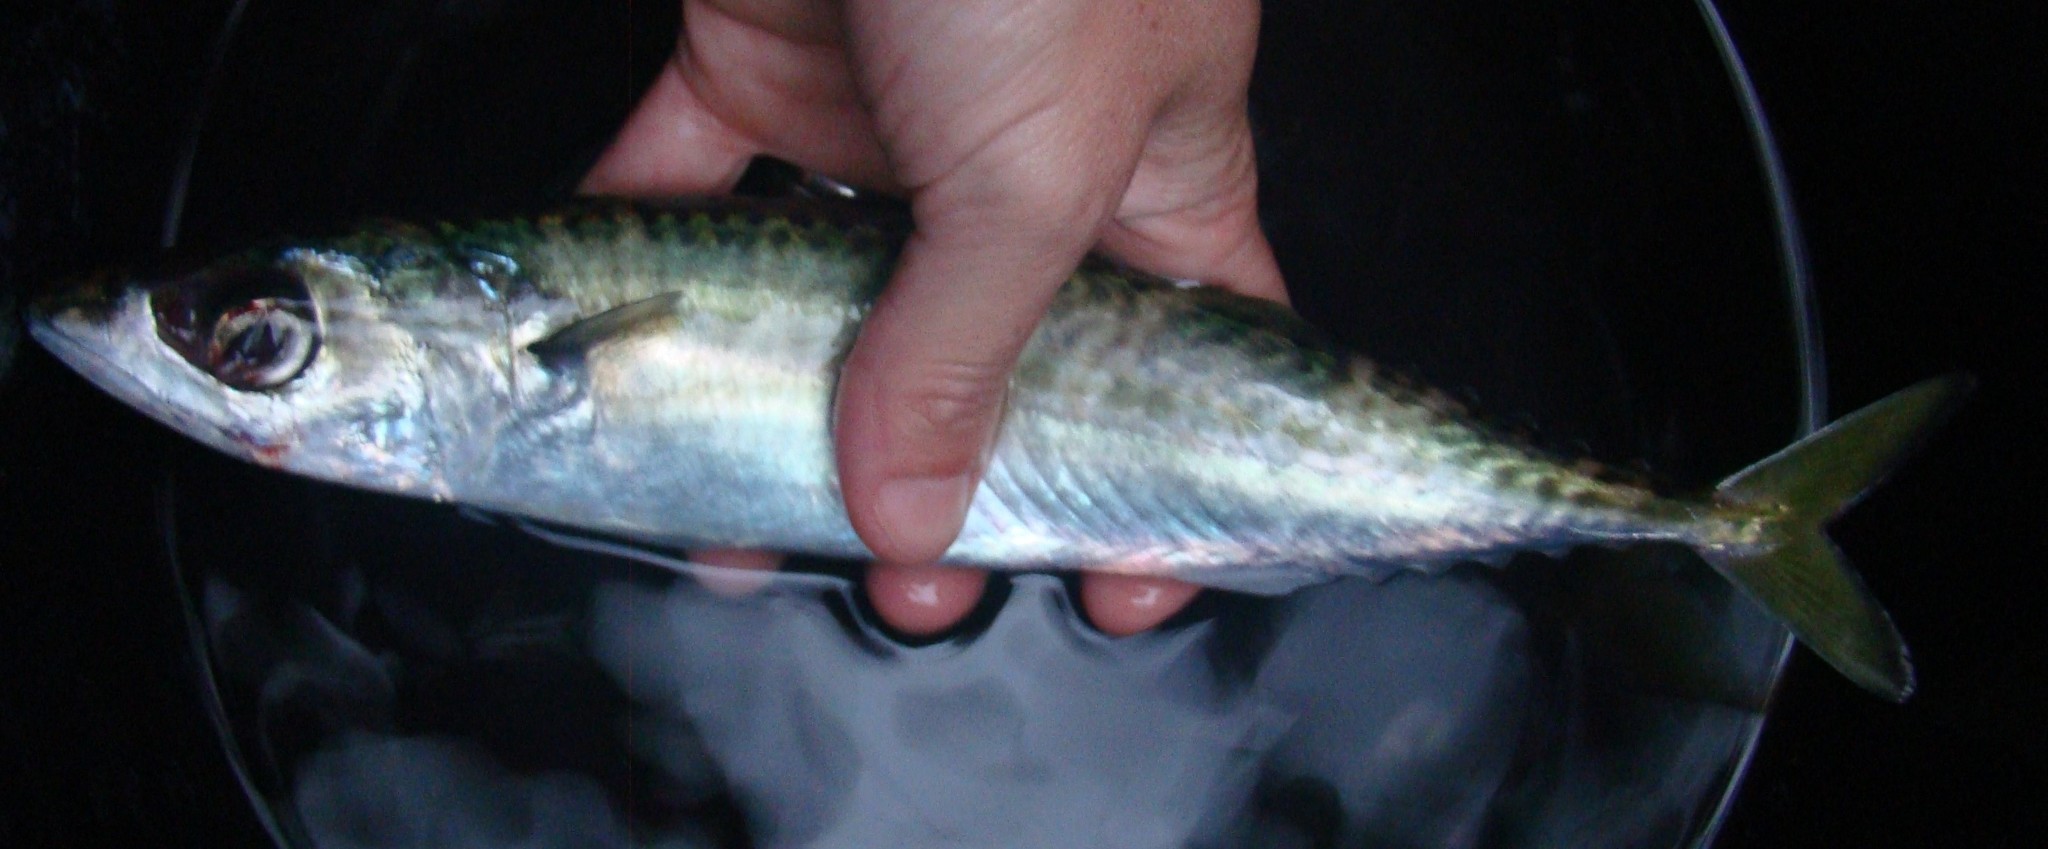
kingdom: Animalia
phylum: Chordata
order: Perciformes
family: Scombridae
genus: Scomber
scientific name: Scomber australasicus
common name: Blue mackerel
